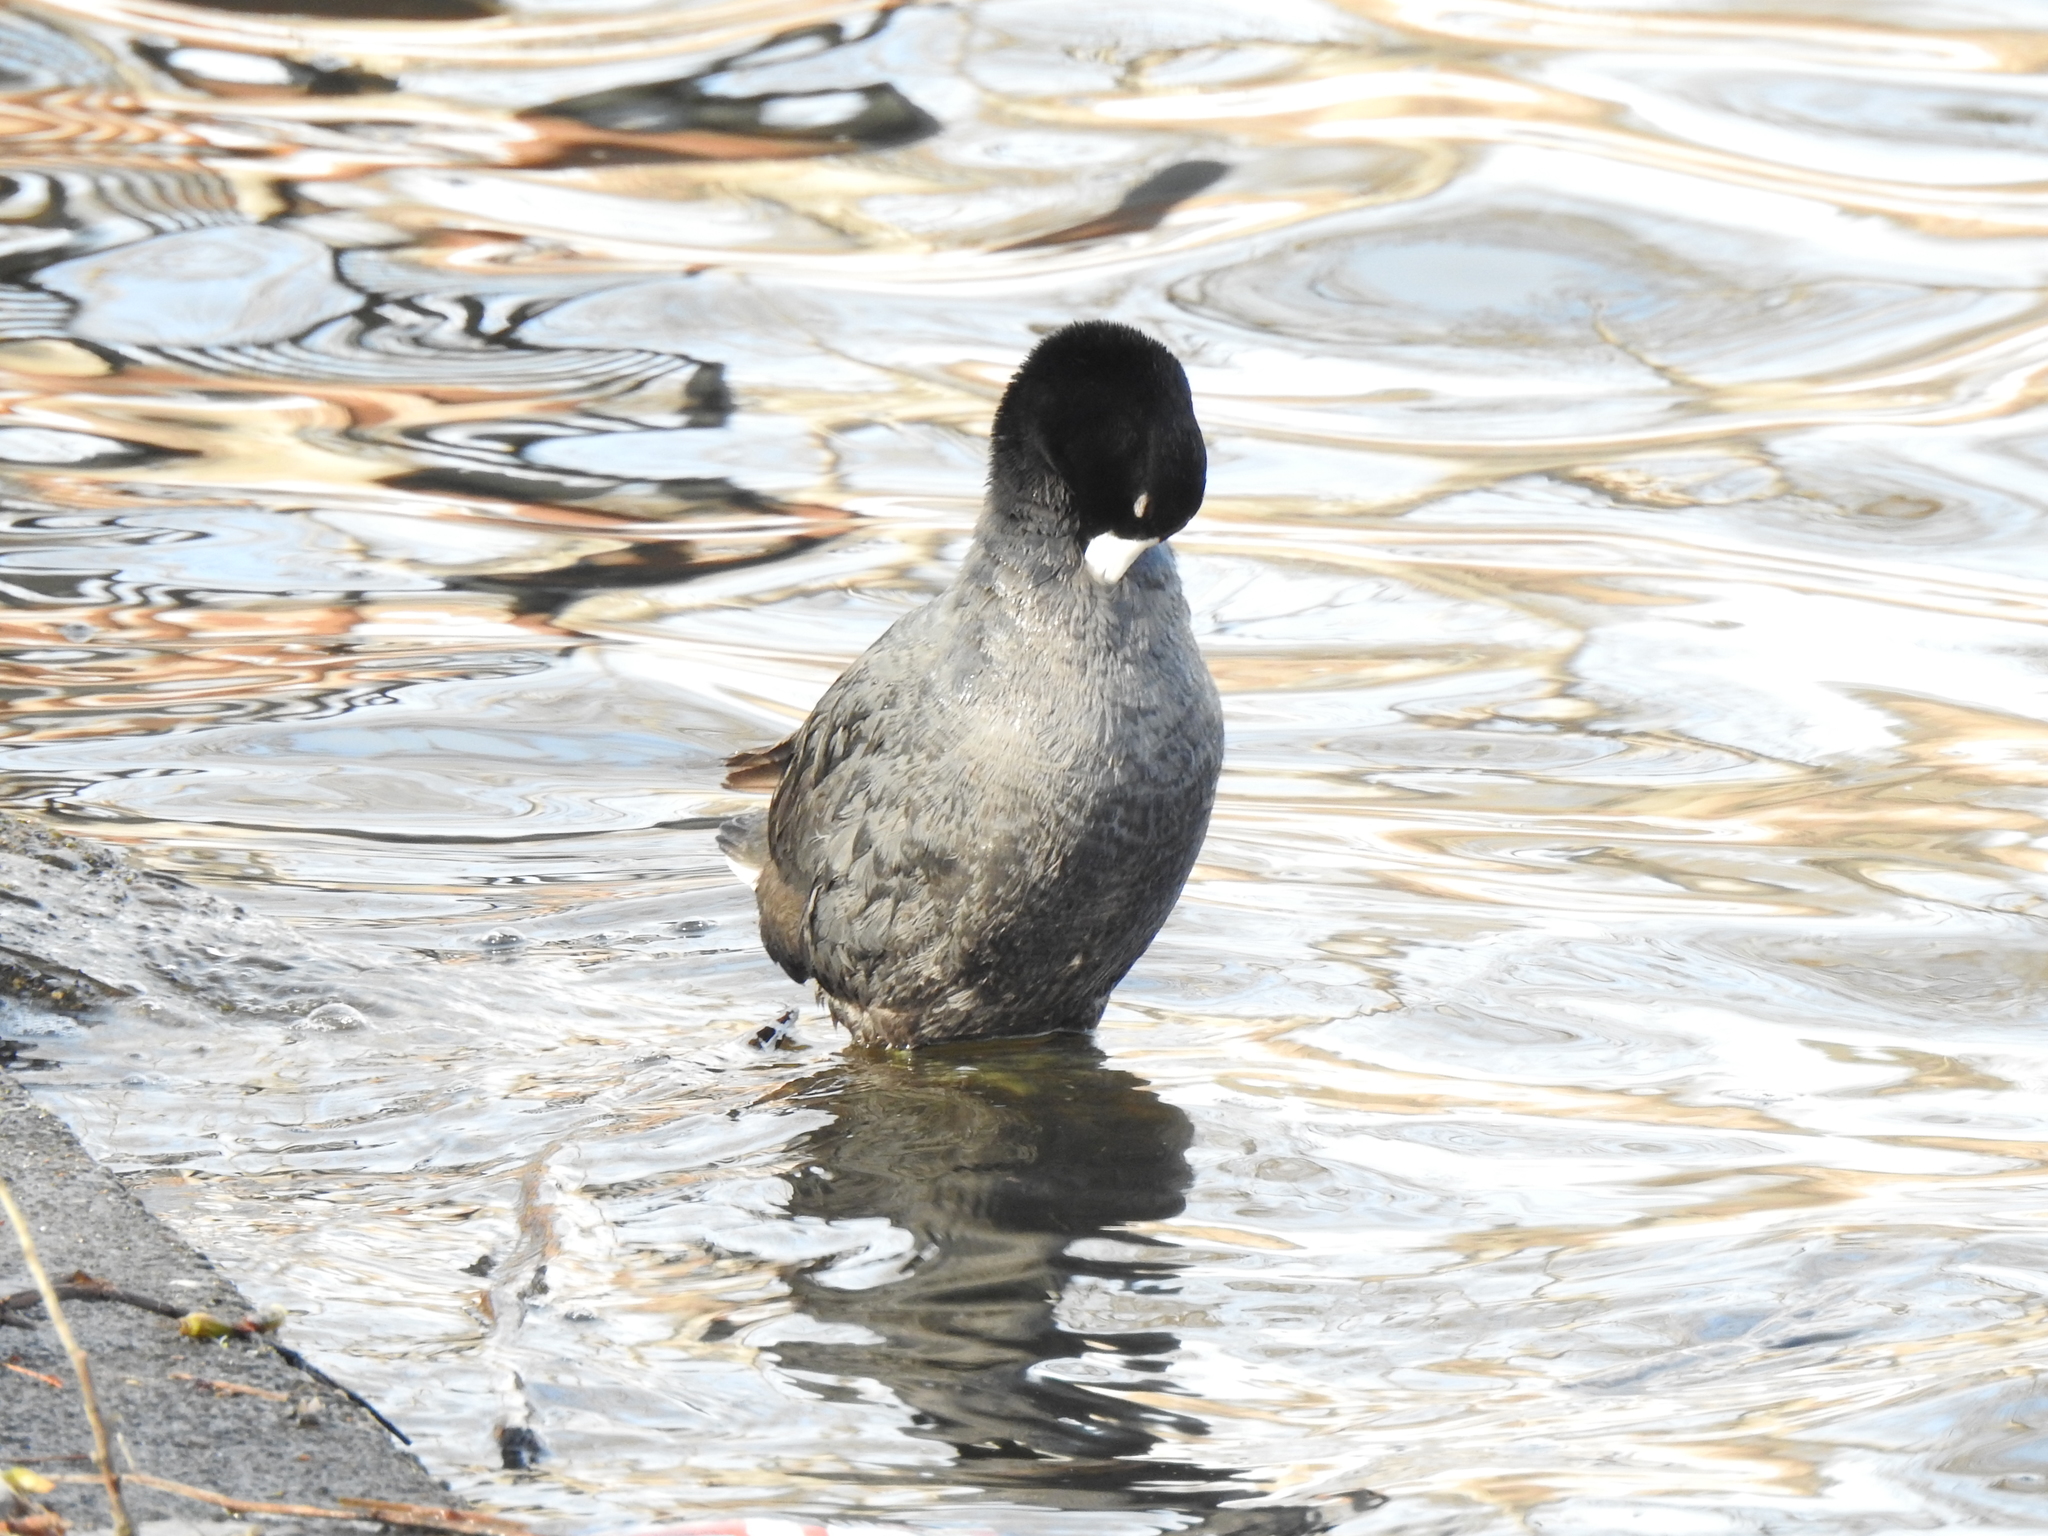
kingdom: Animalia
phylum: Chordata
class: Aves
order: Gruiformes
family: Rallidae
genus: Fulica
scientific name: Fulica americana
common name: American coot
